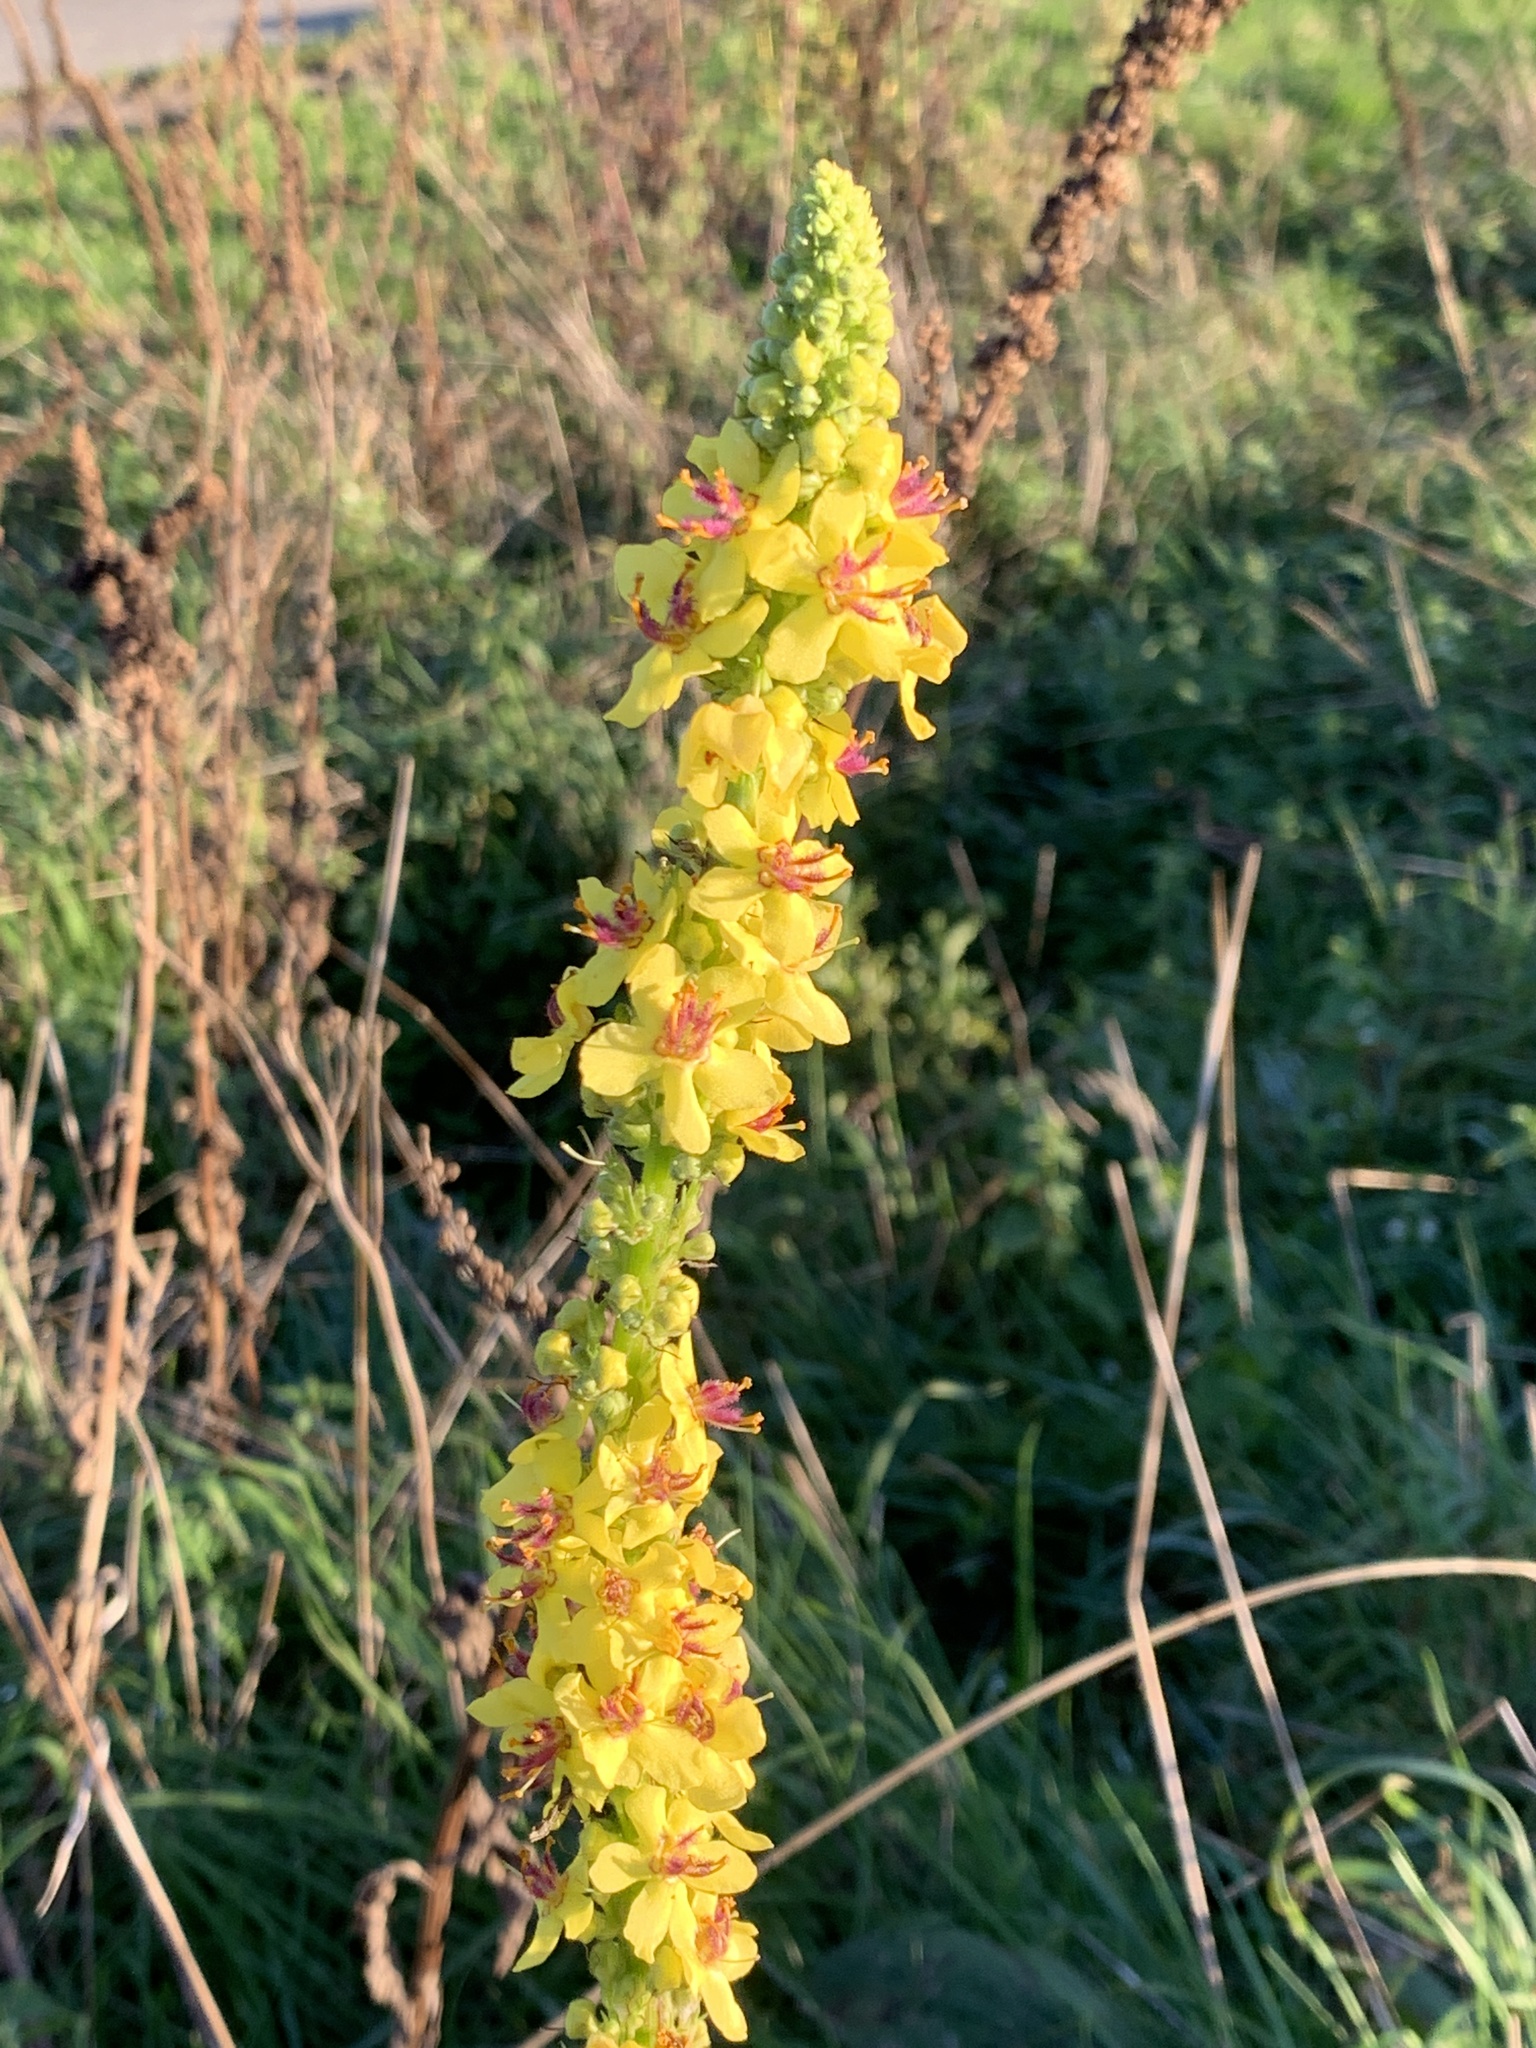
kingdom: Plantae
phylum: Tracheophyta
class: Magnoliopsida
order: Lamiales
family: Scrophulariaceae
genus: Verbascum
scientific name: Verbascum nigrum
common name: Dark mullein
